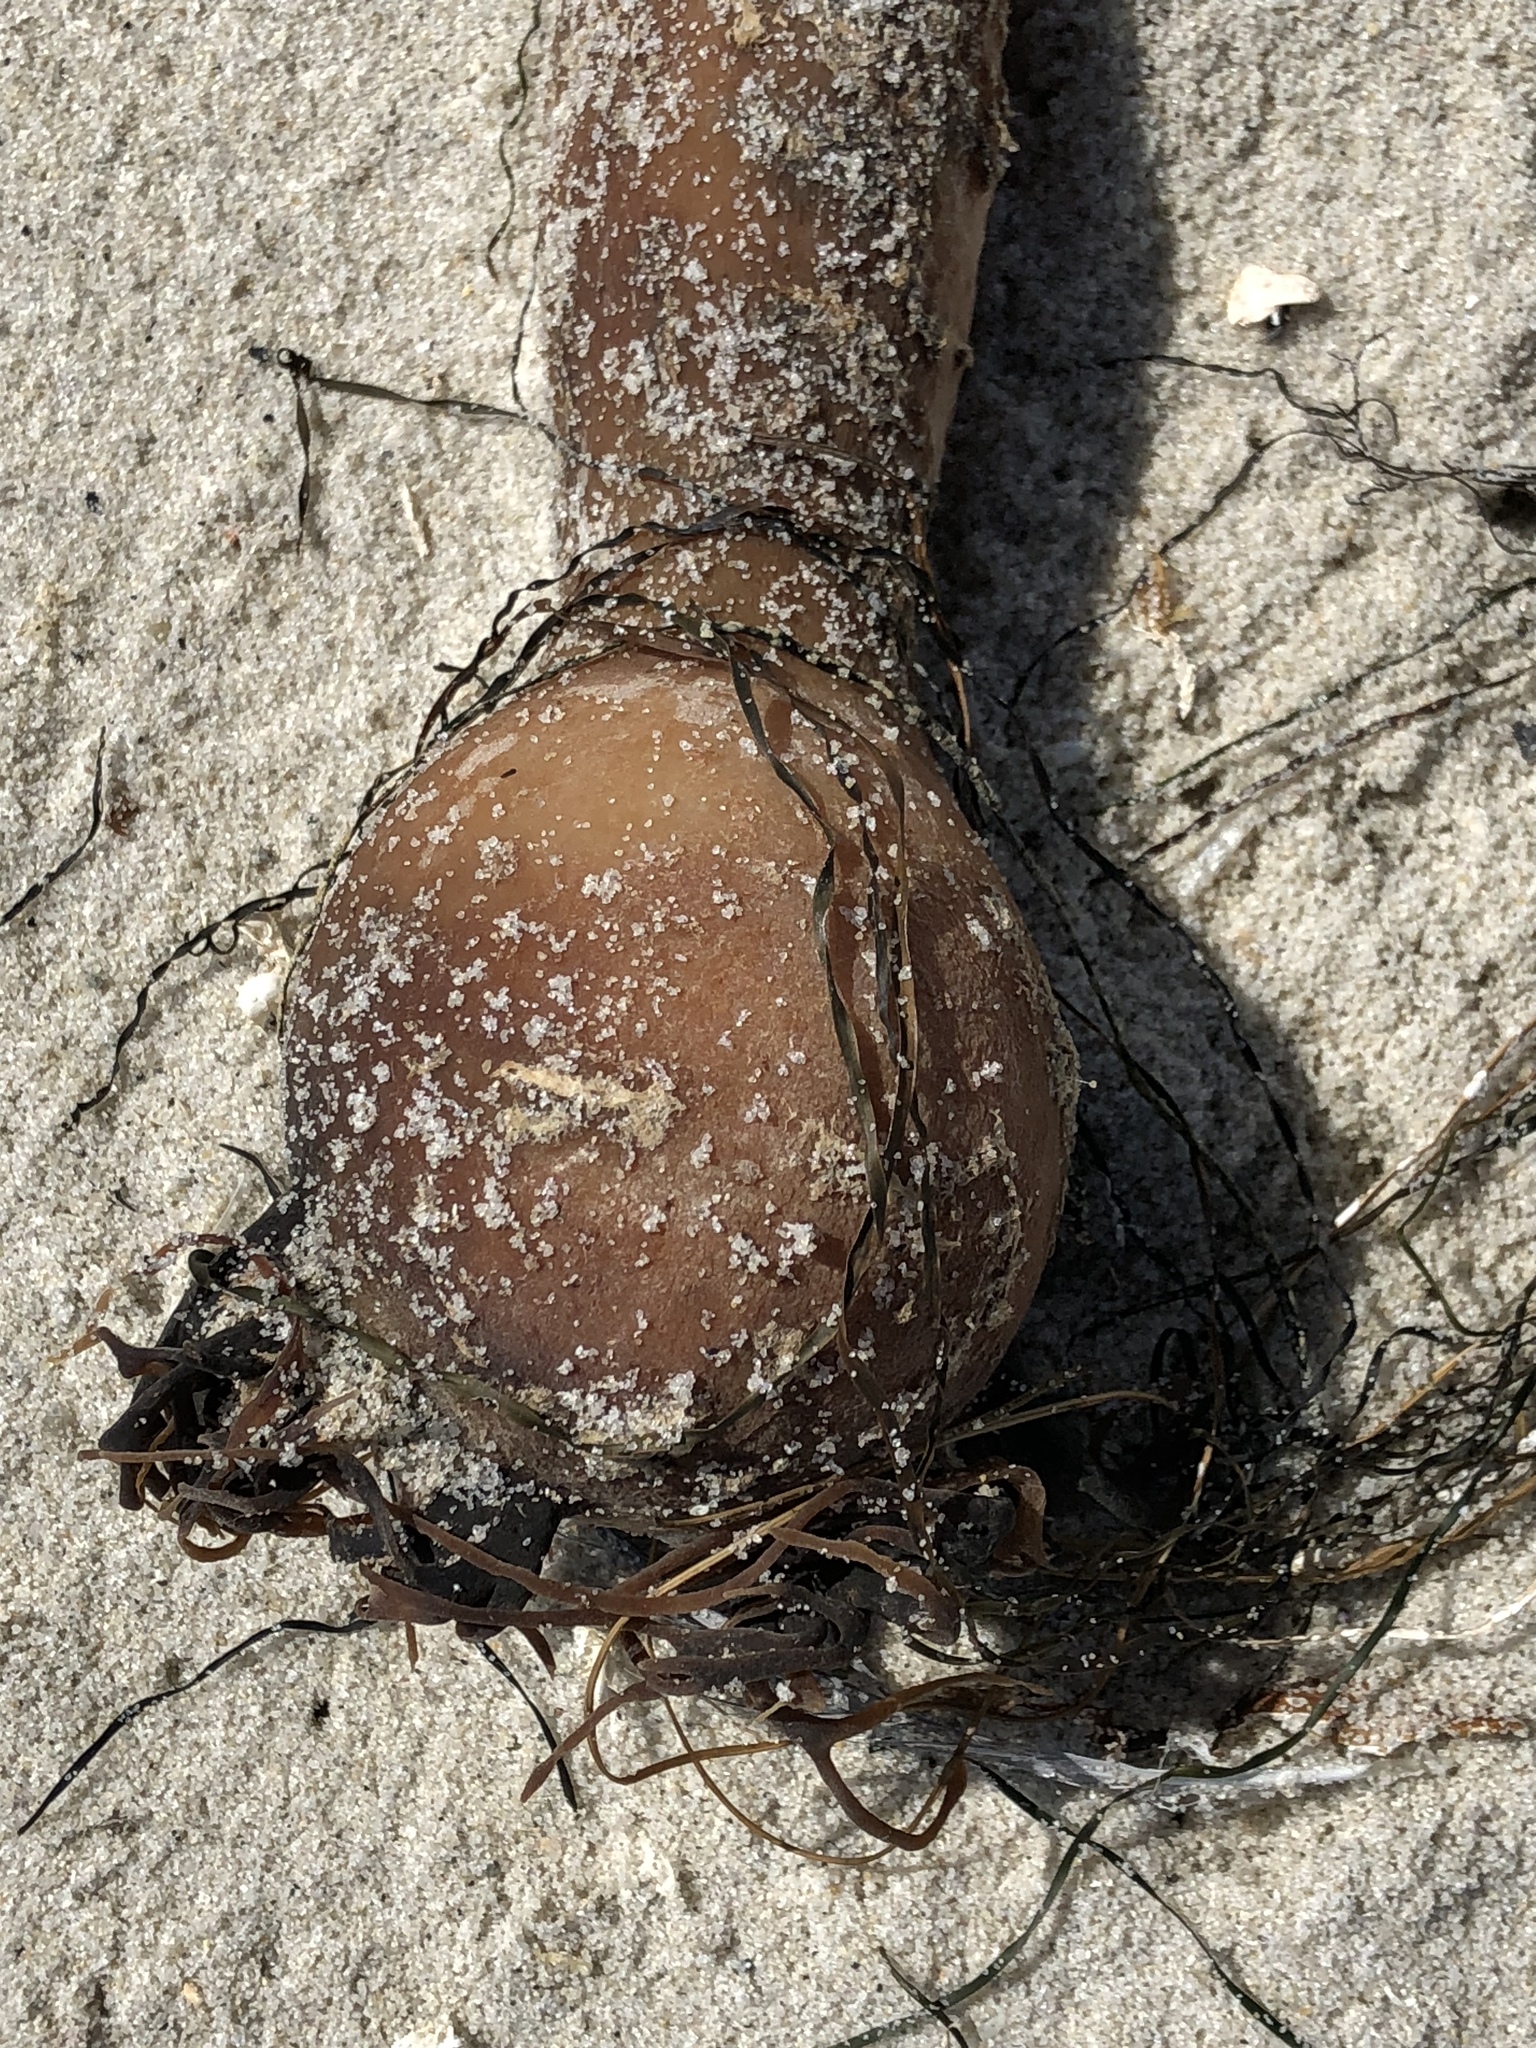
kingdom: Chromista
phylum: Ochrophyta
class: Phaeophyceae
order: Laminariales
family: Laminariaceae
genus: Nereocystis
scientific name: Nereocystis luetkeana
